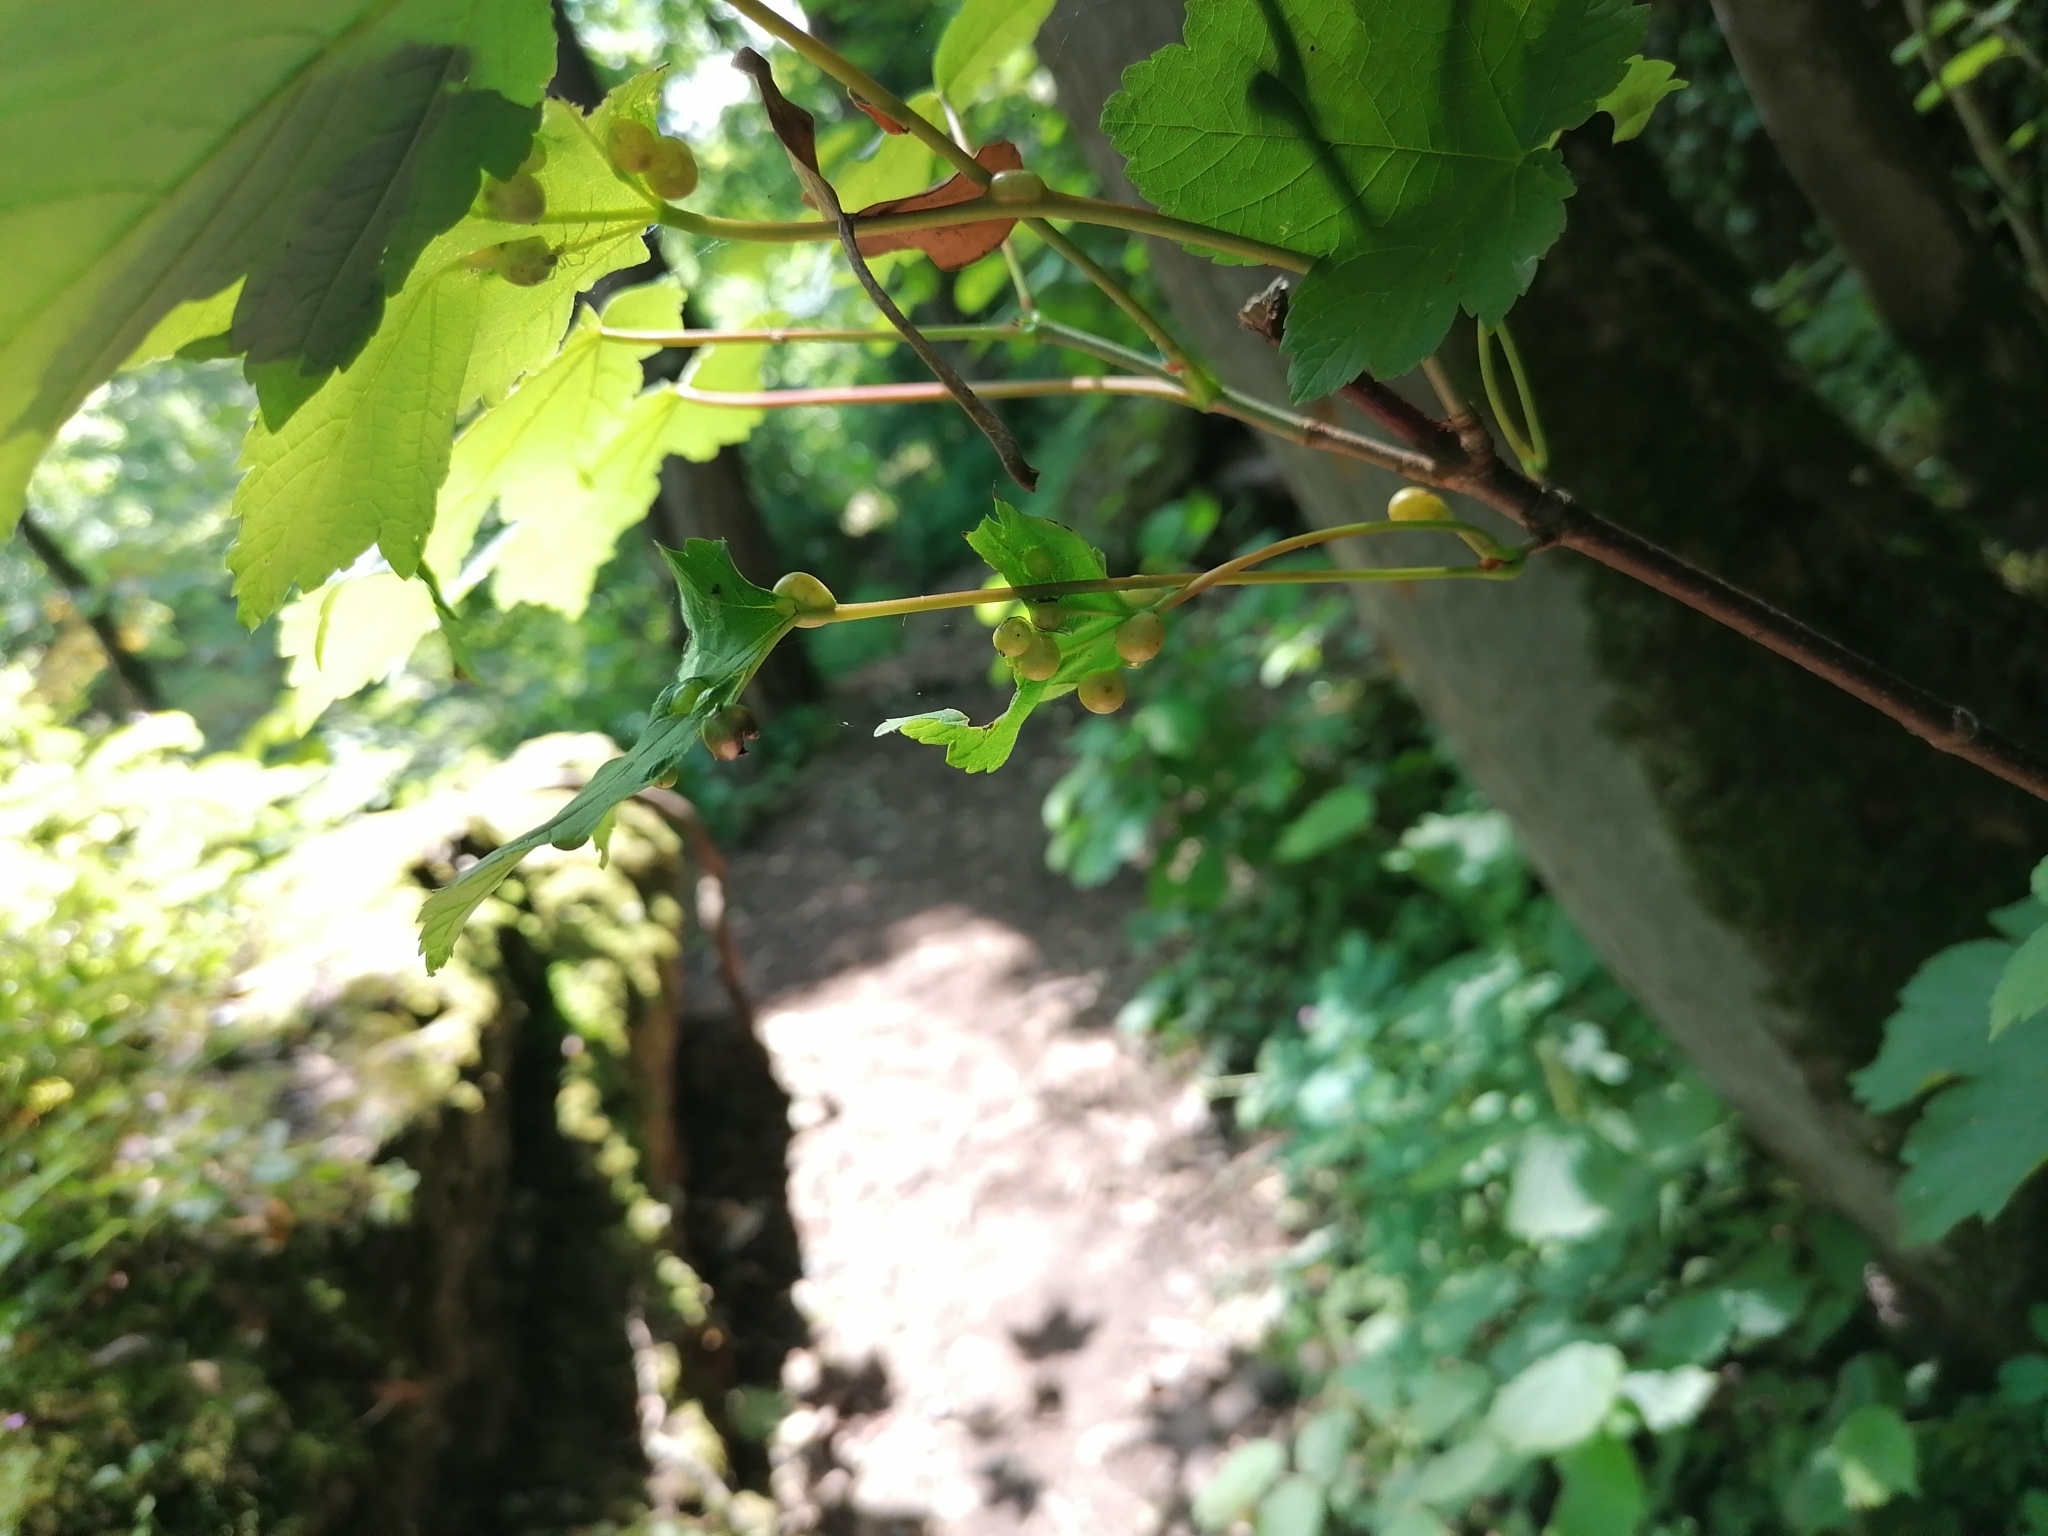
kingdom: Animalia
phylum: Arthropoda
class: Insecta
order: Hymenoptera
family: Cynipidae
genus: Pediaspis
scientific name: Pediaspis aceris
